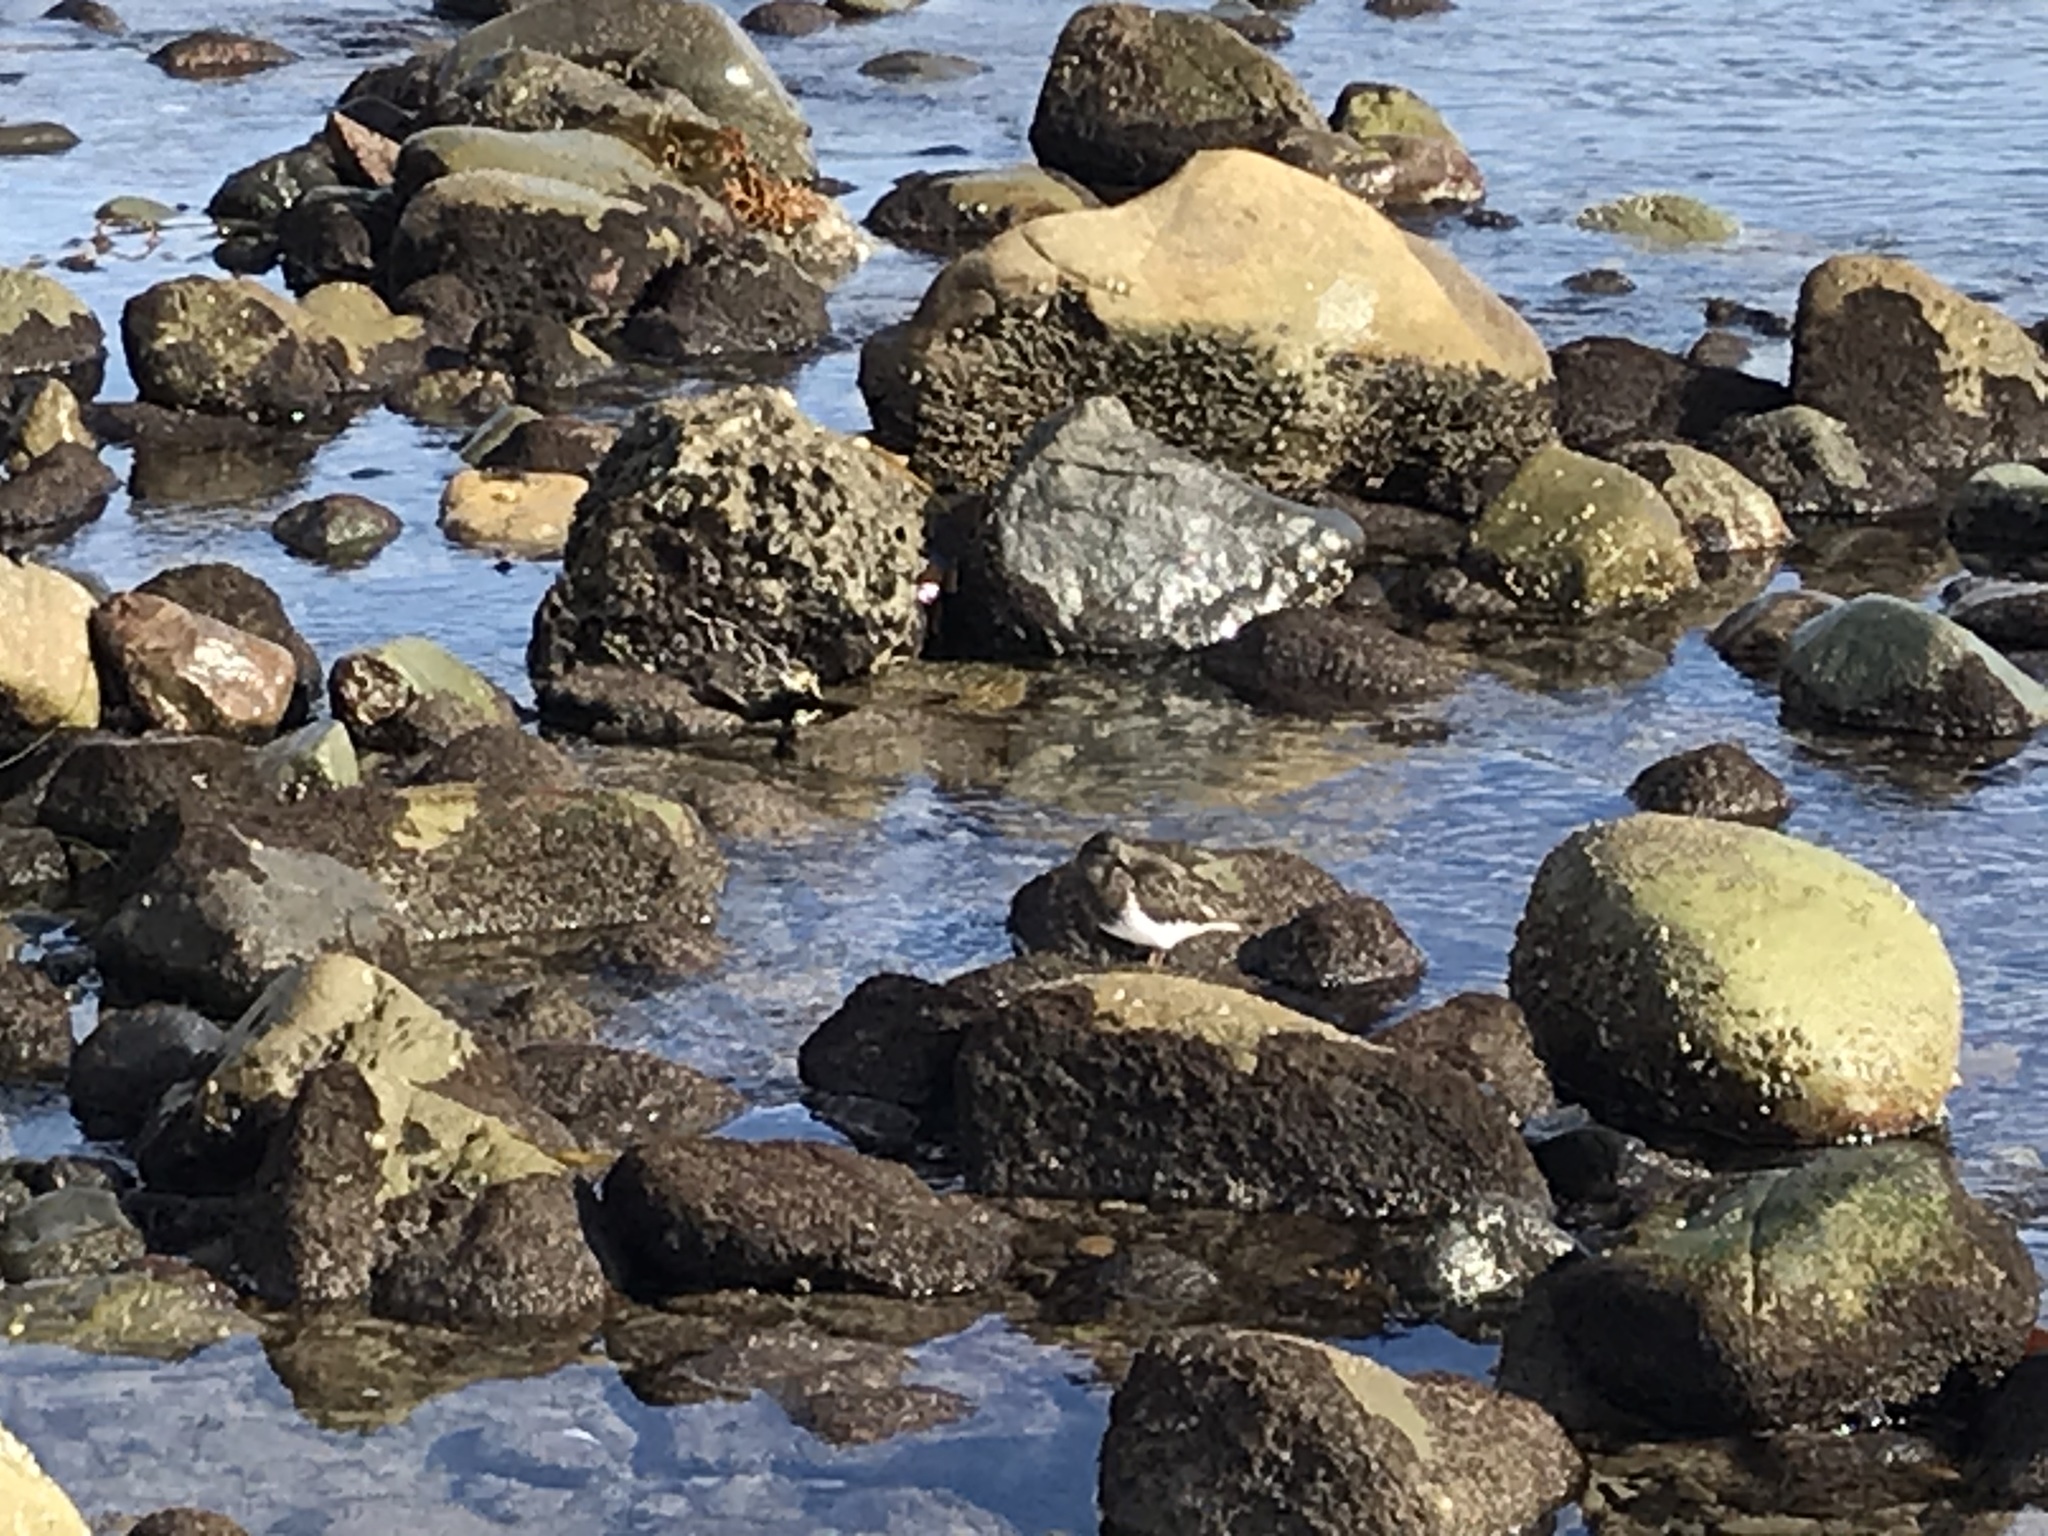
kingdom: Animalia
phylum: Chordata
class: Aves
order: Charadriiformes
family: Scolopacidae
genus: Arenaria
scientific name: Arenaria melanocephala
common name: Black turnstone
